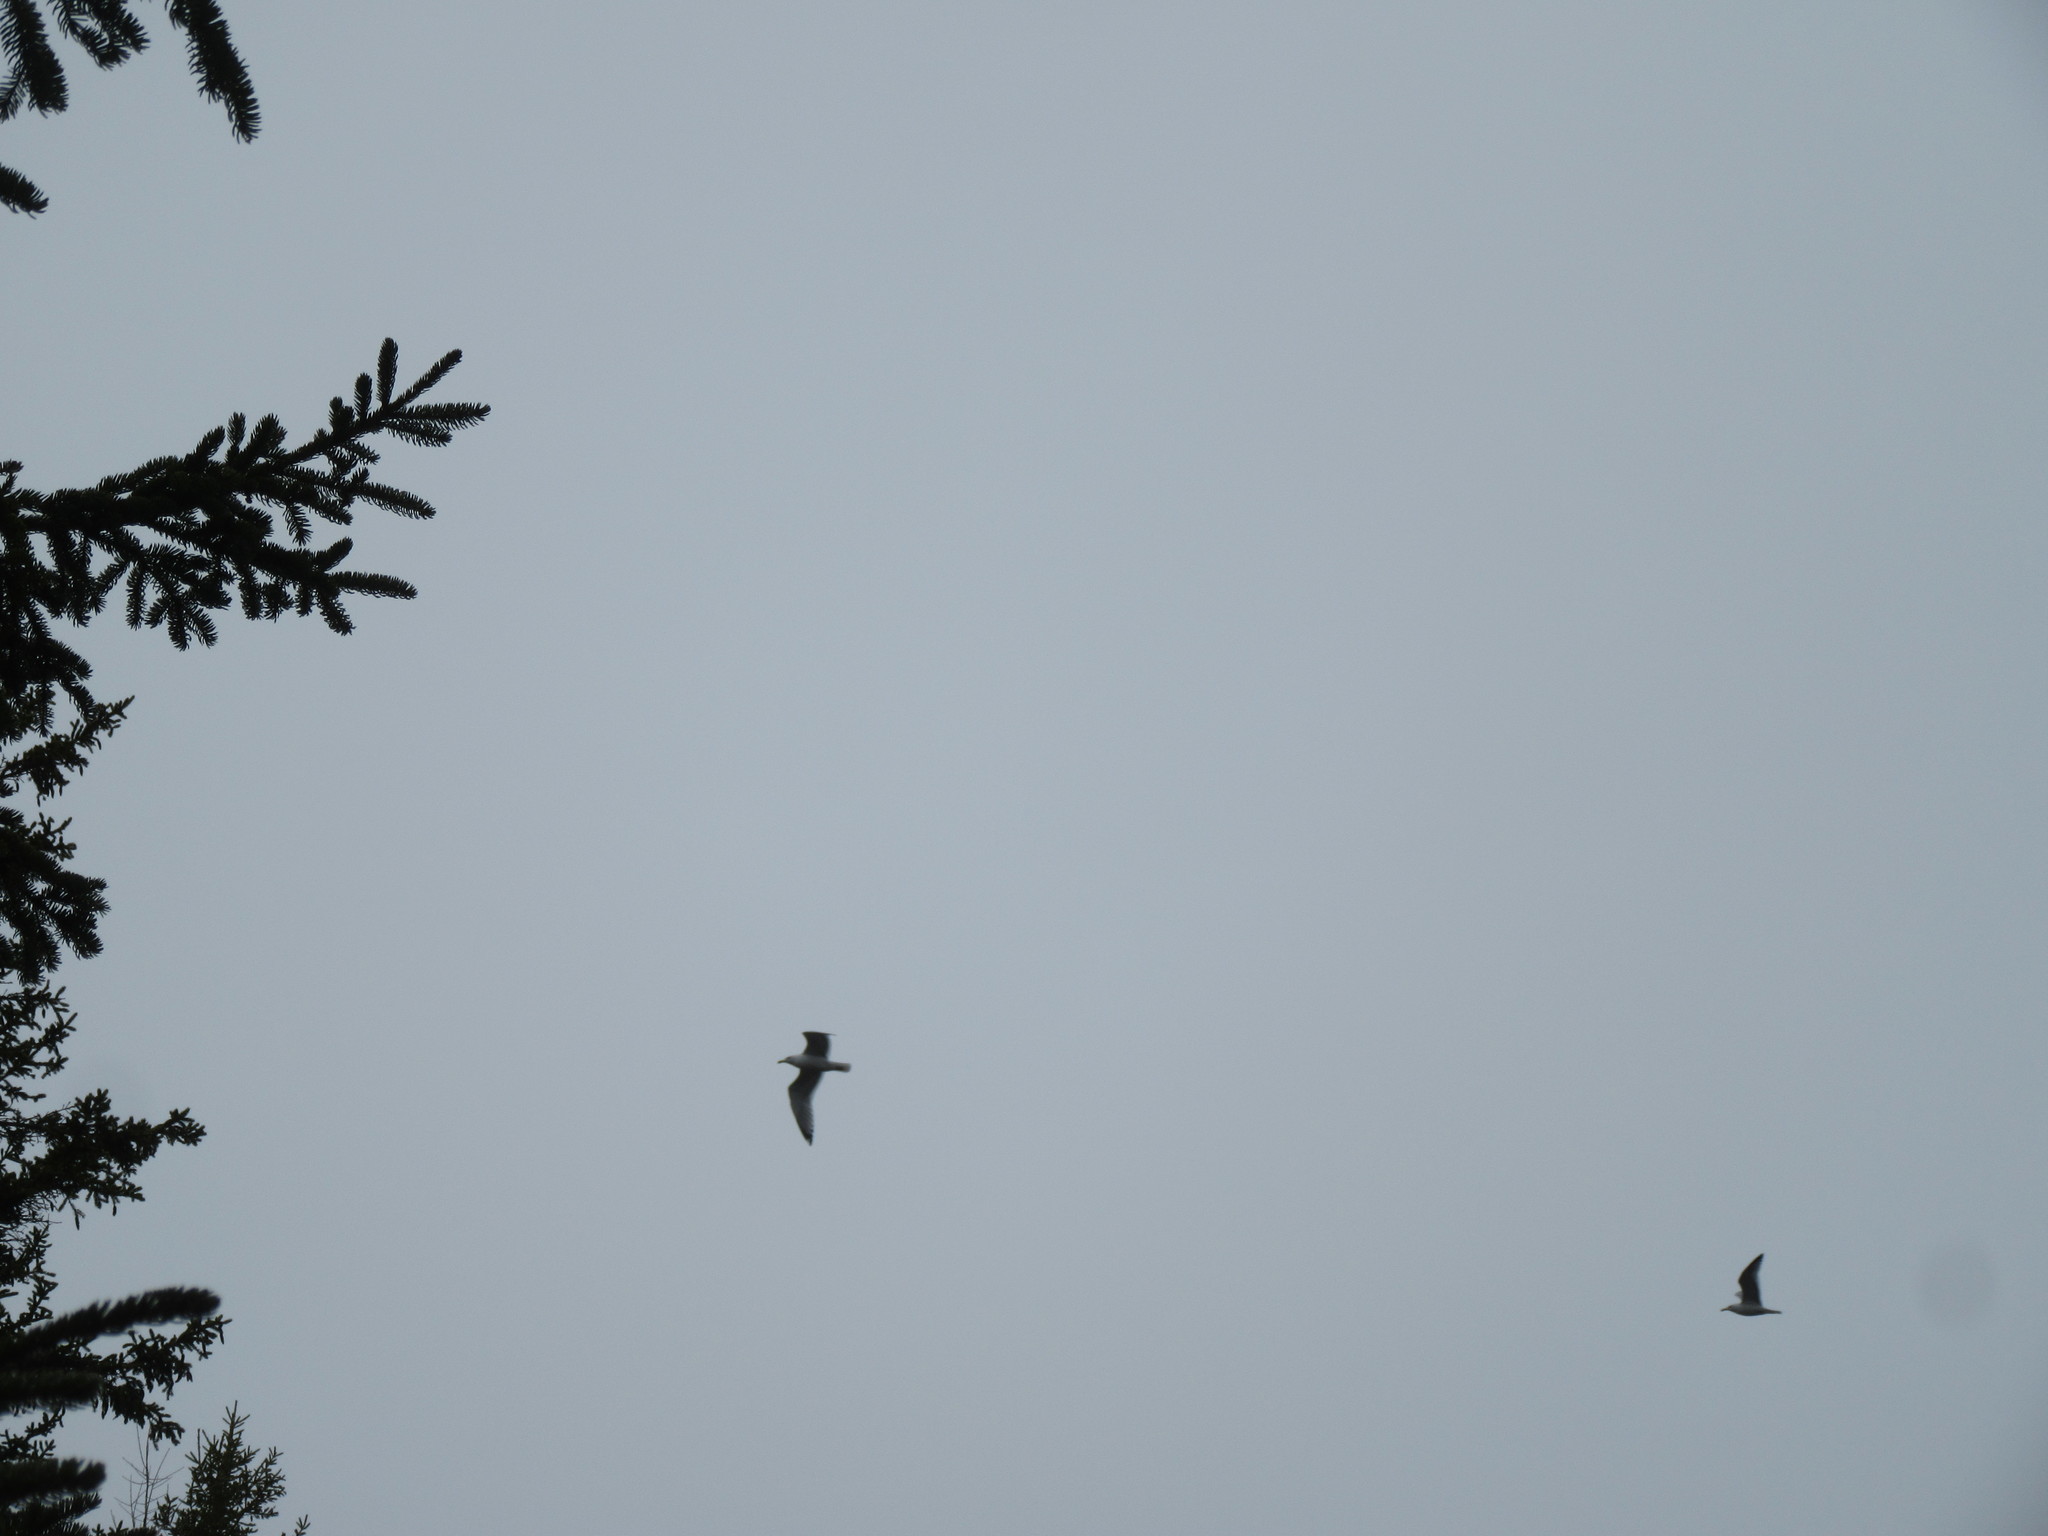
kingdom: Animalia
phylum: Chordata
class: Aves
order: Charadriiformes
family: Laridae
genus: Larus
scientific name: Larus argentatus
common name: Herring gull
